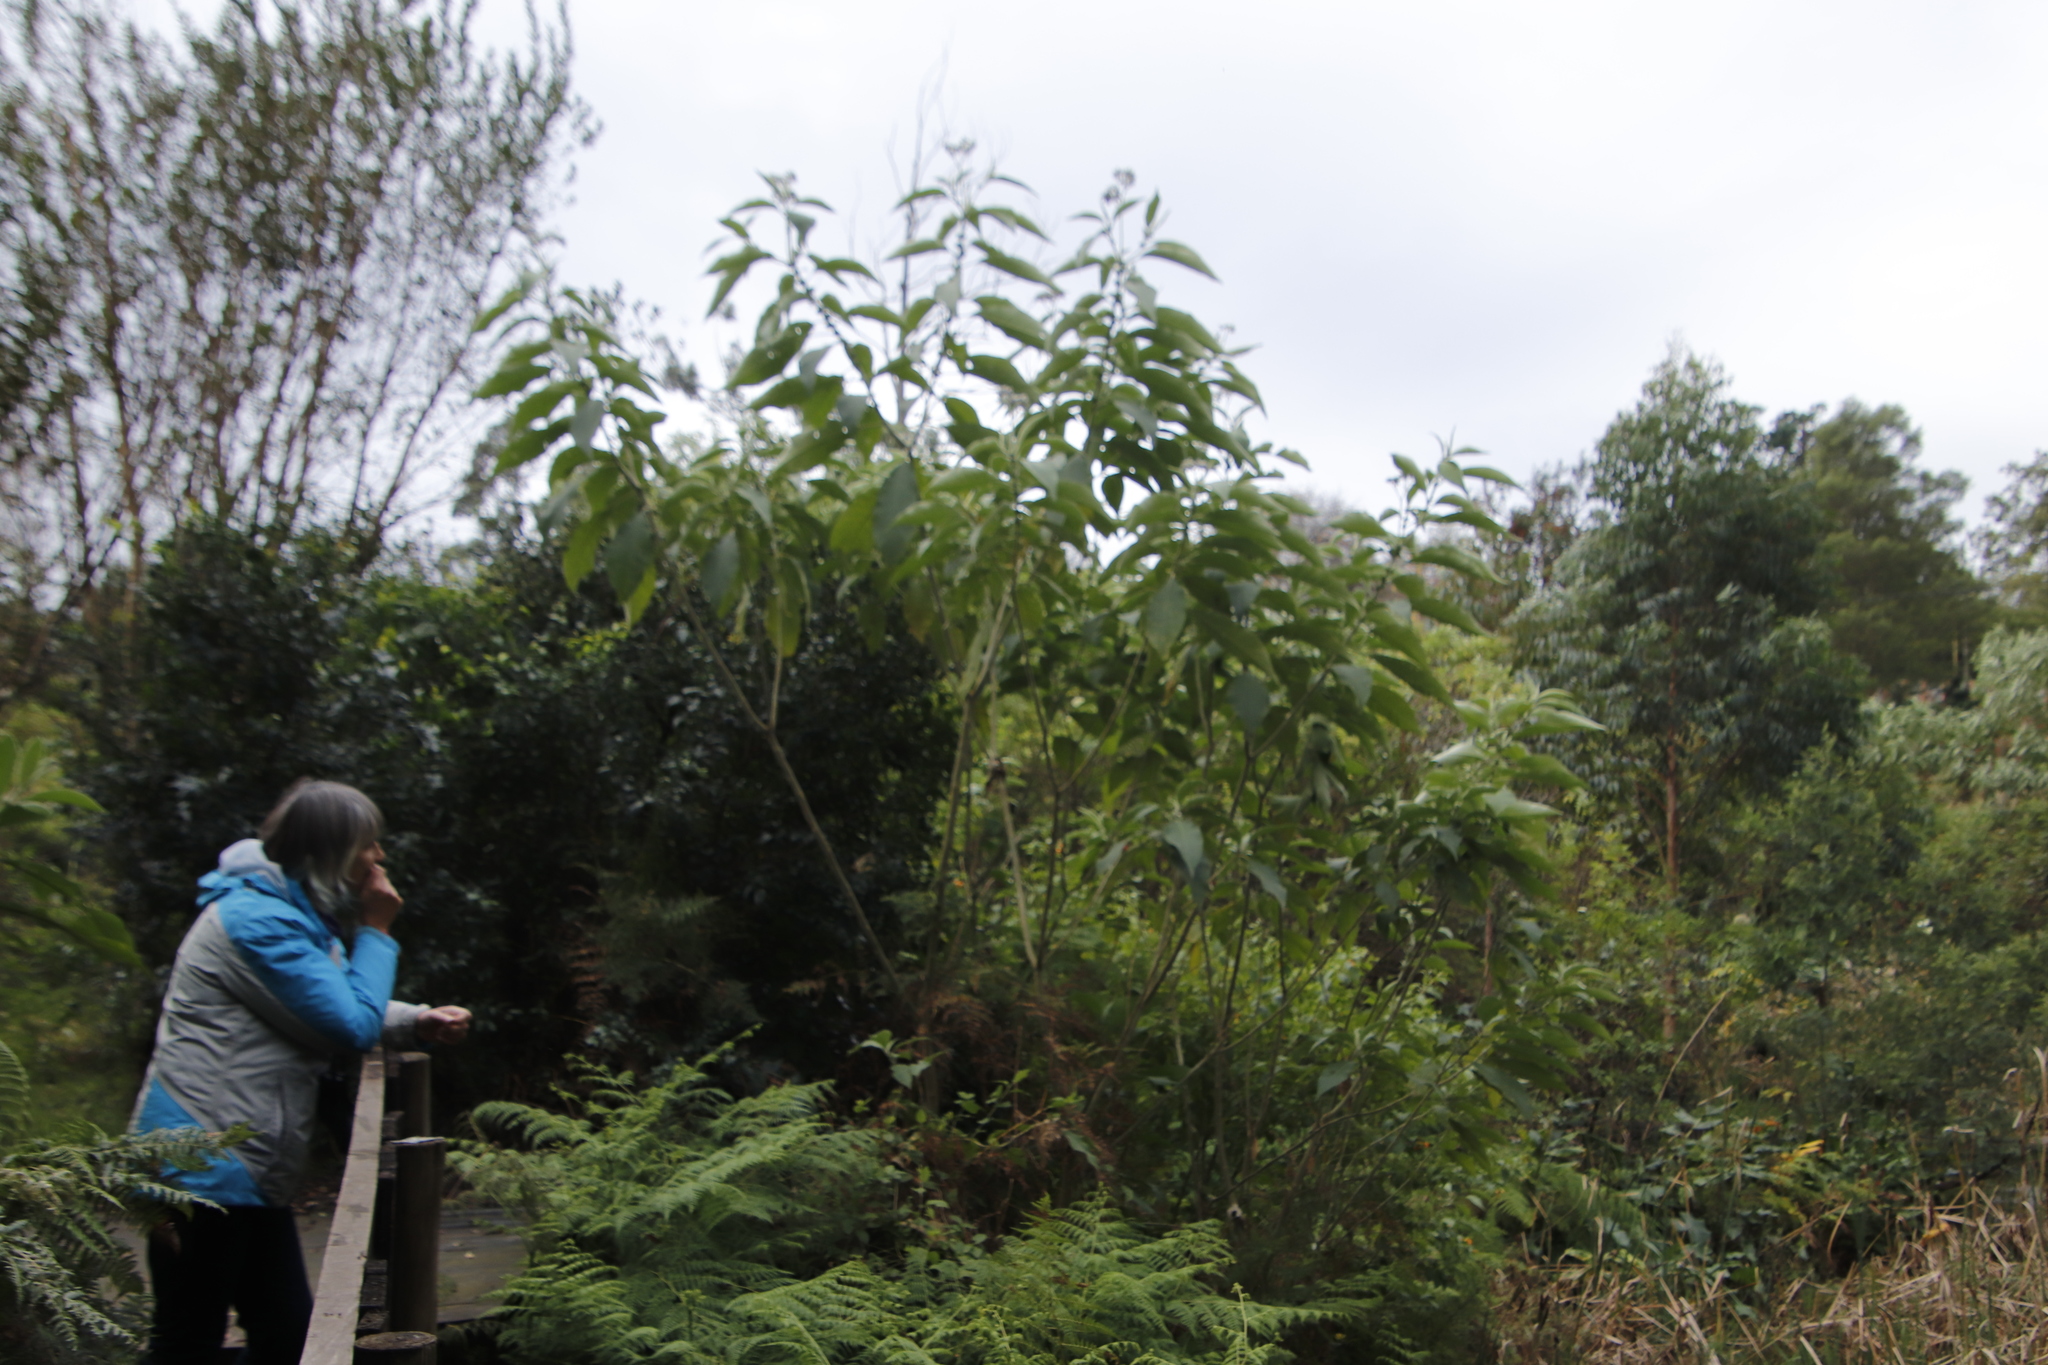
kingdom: Plantae
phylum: Tracheophyta
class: Magnoliopsida
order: Solanales
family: Solanaceae
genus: Solanum
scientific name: Solanum mauritianum
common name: Earleaf nightshade
